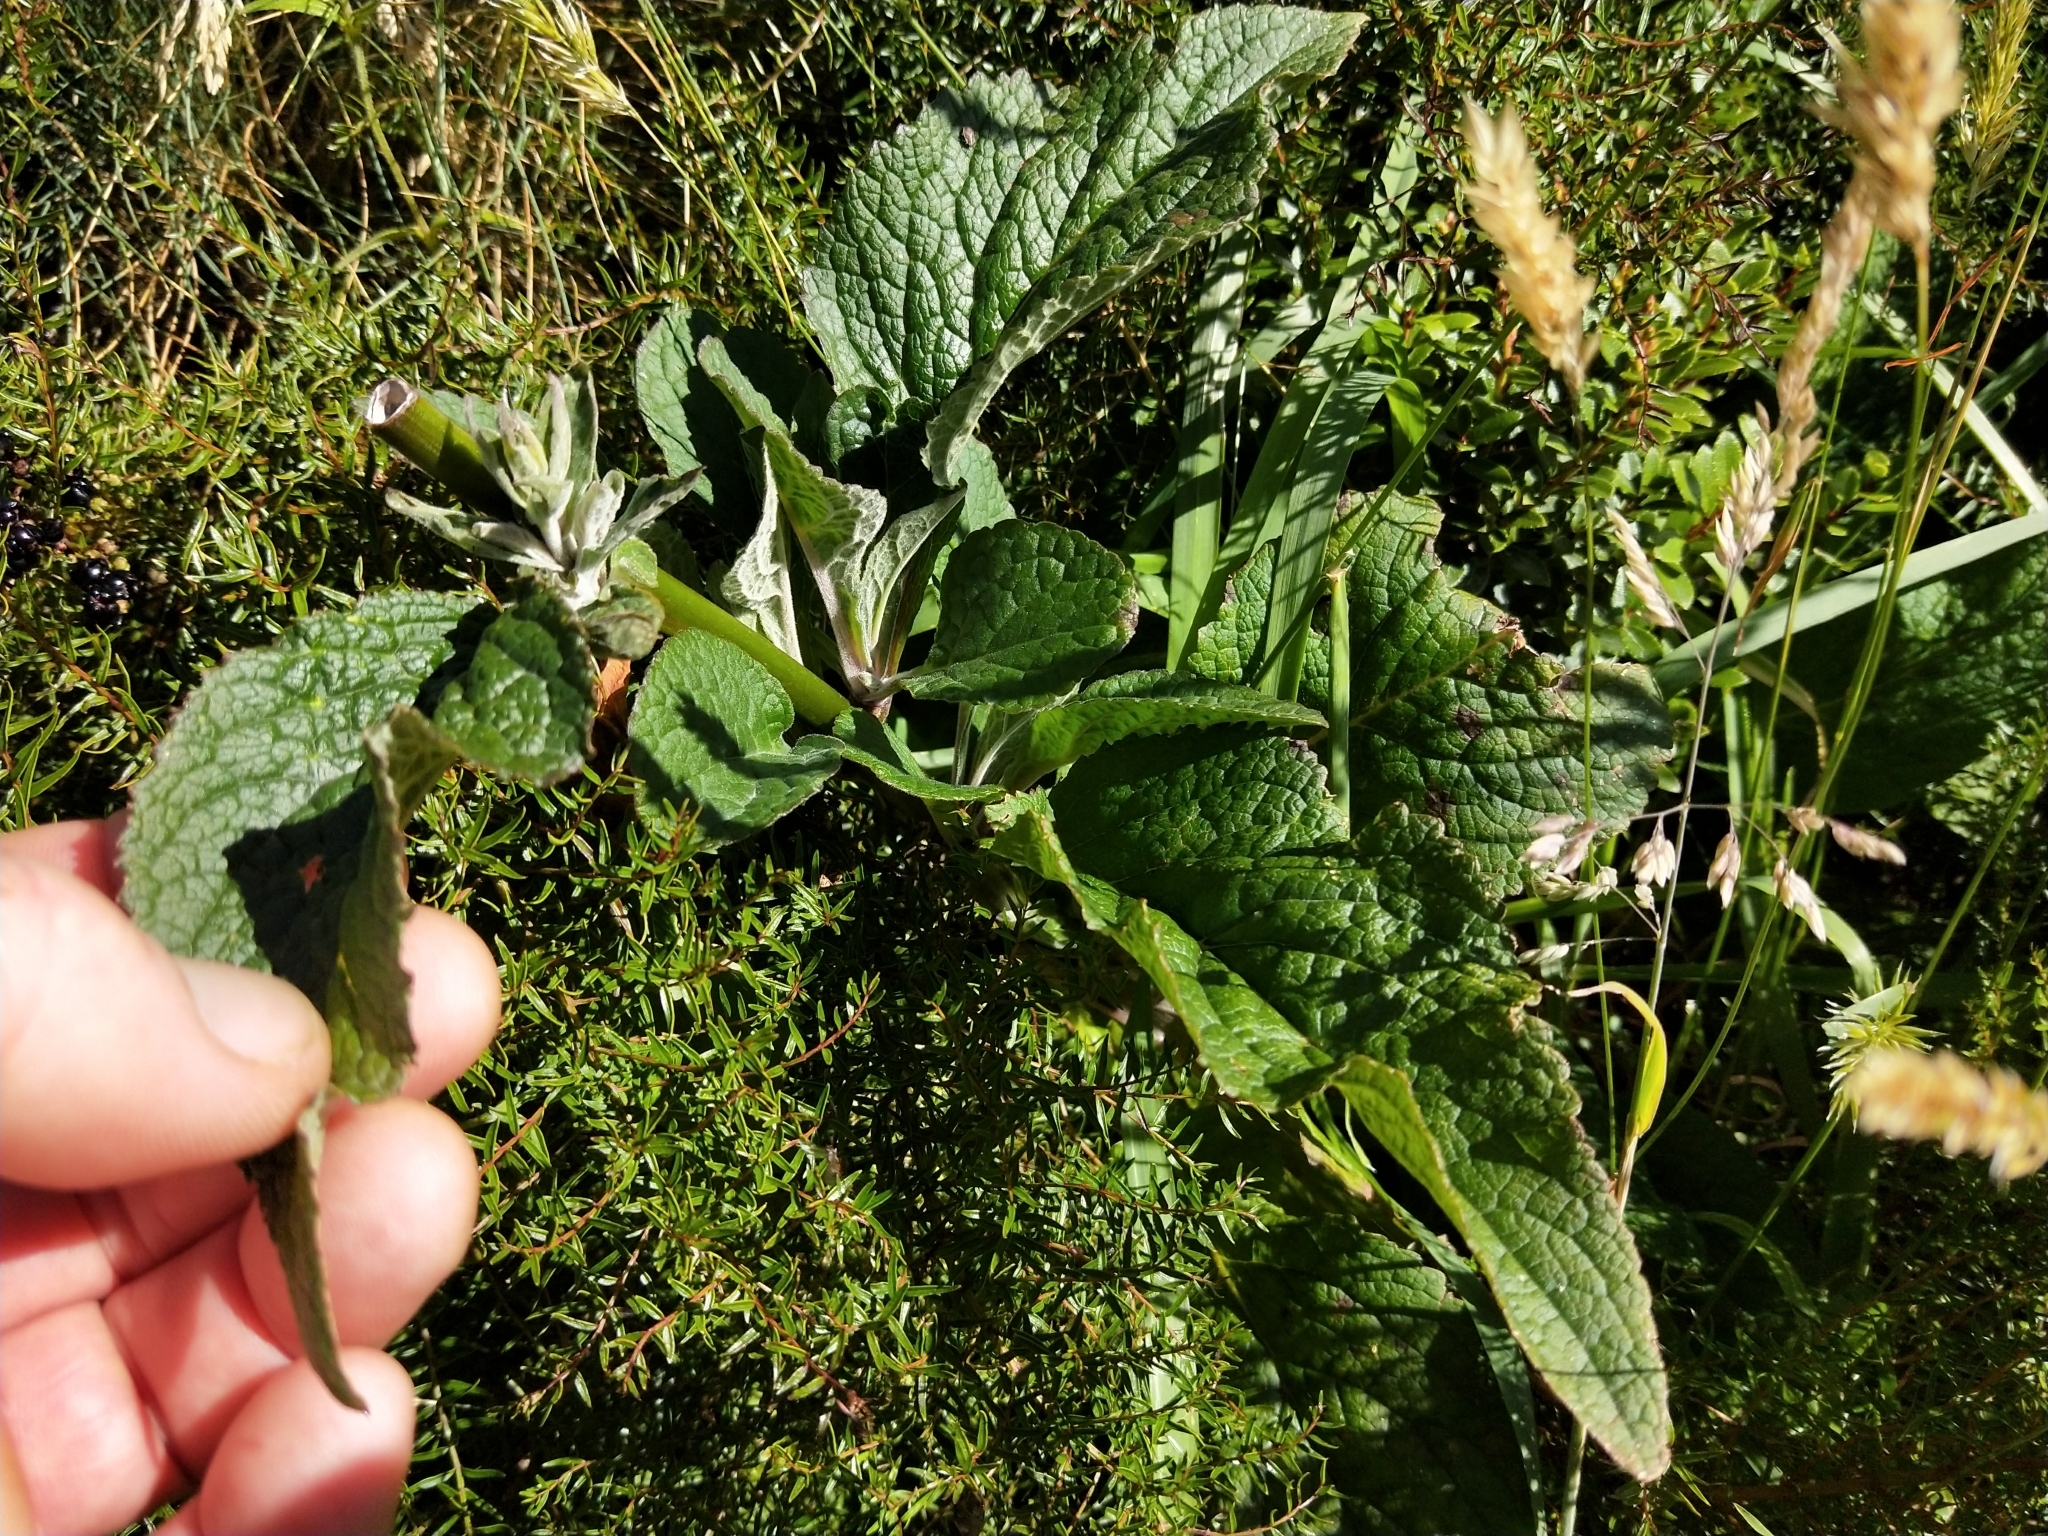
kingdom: Plantae
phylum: Tracheophyta
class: Magnoliopsida
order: Lamiales
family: Plantaginaceae
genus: Digitalis
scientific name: Digitalis purpurea
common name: Foxglove
